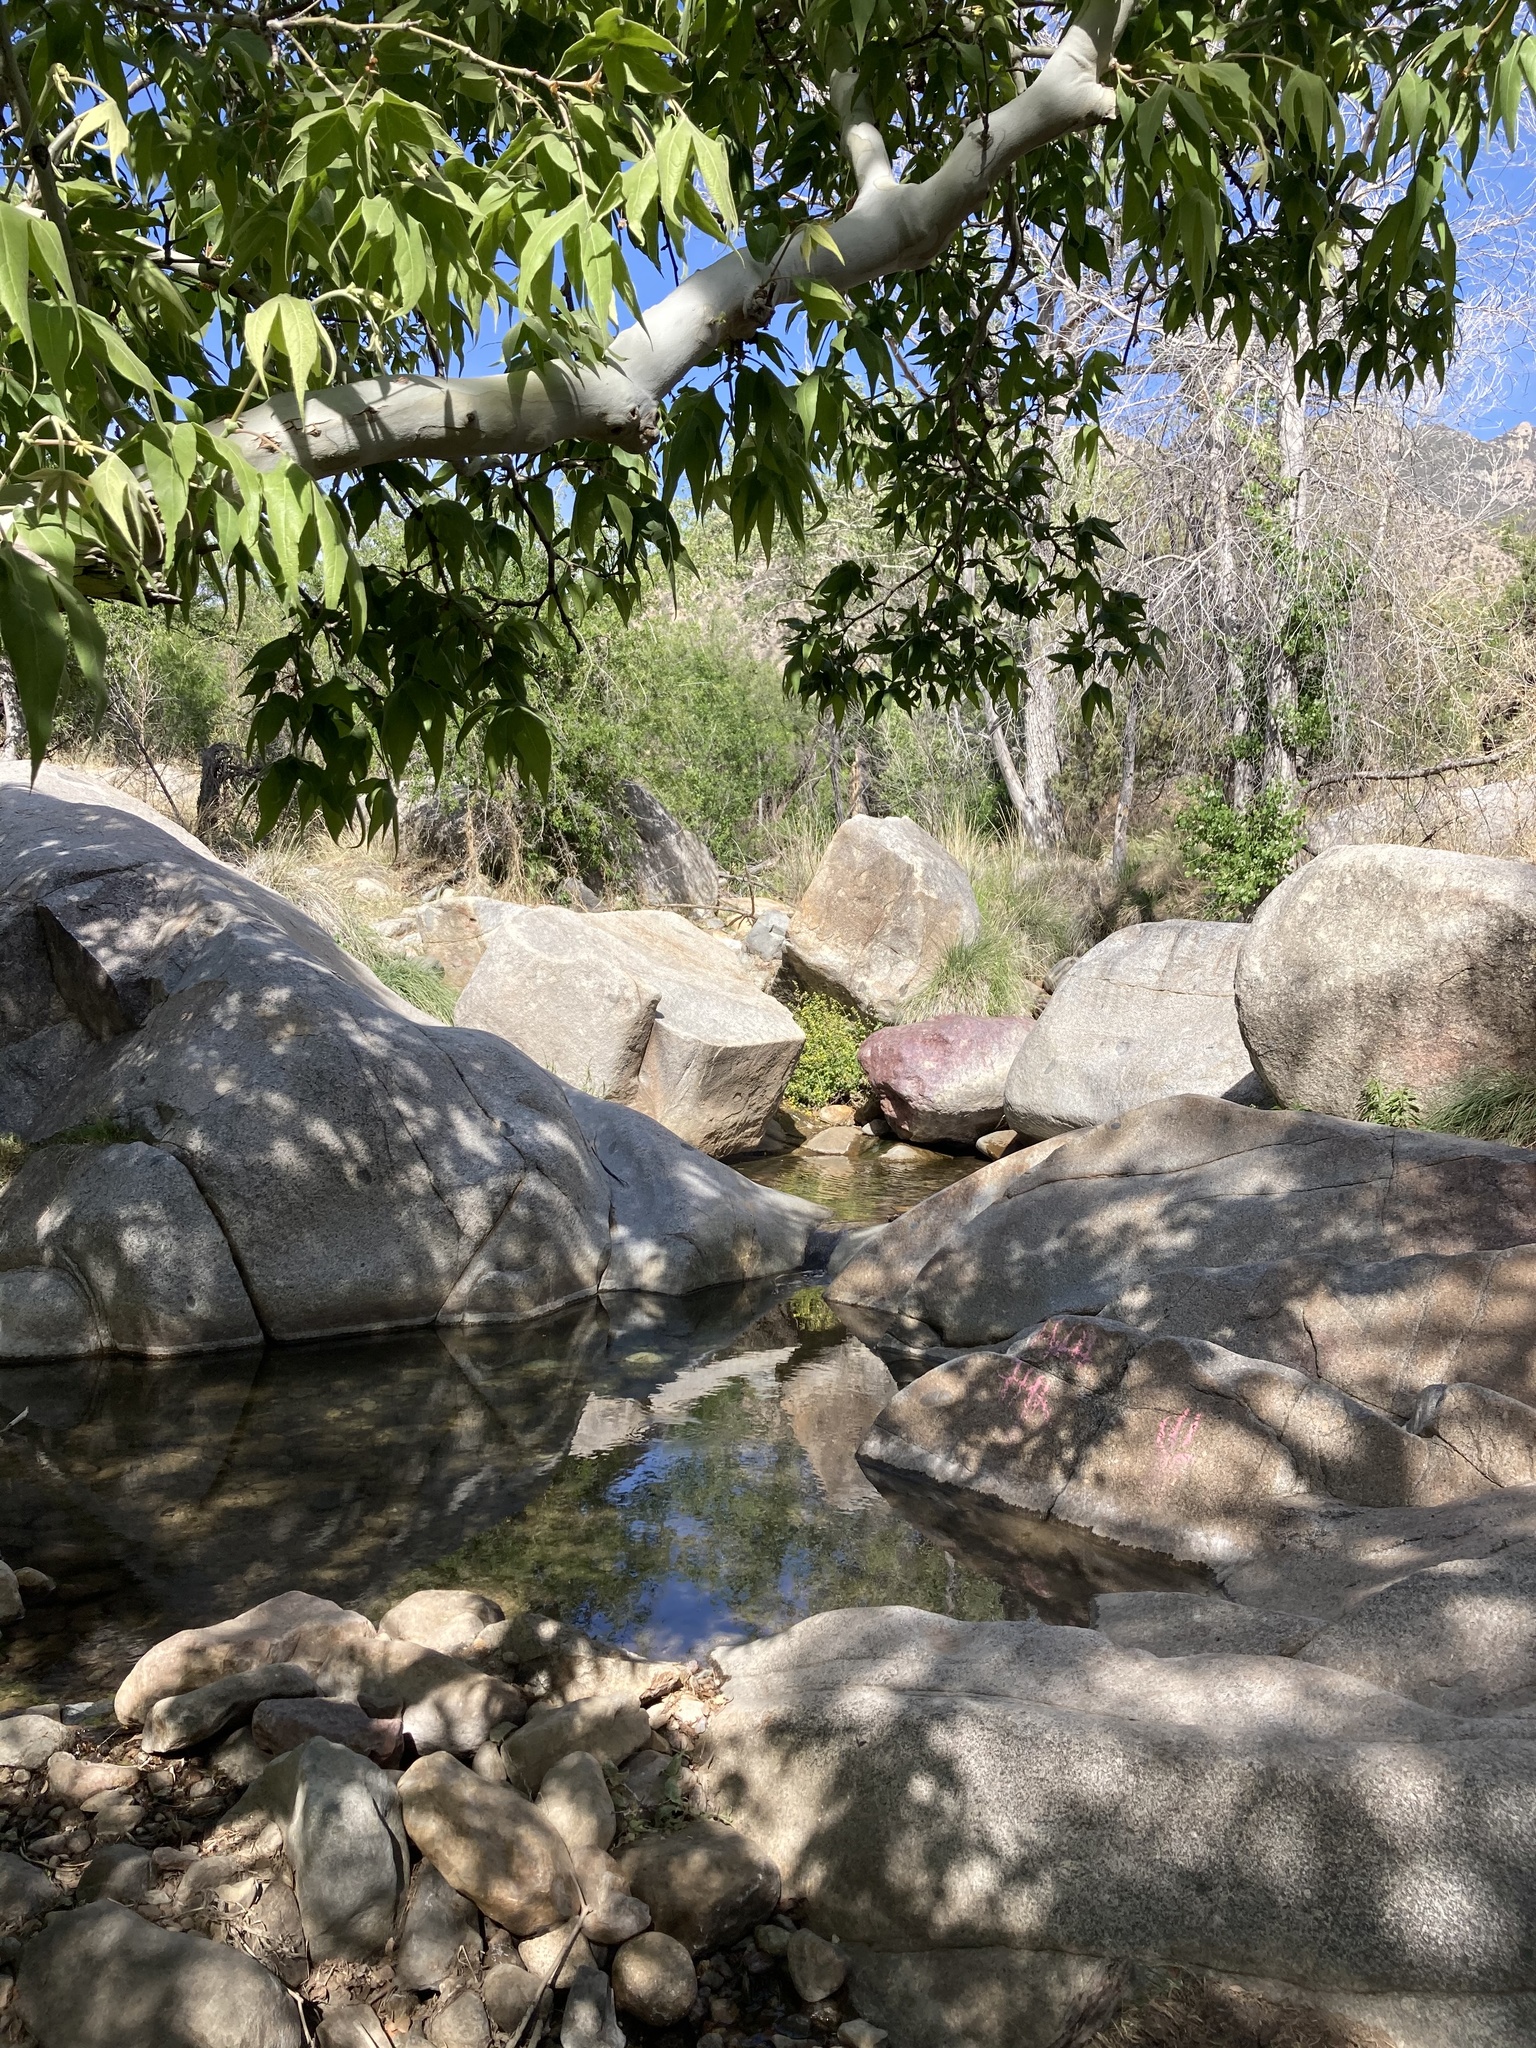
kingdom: Plantae
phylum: Tracheophyta
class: Magnoliopsida
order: Proteales
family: Platanaceae
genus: Platanus
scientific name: Platanus wrightii
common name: Arizona sycamore
